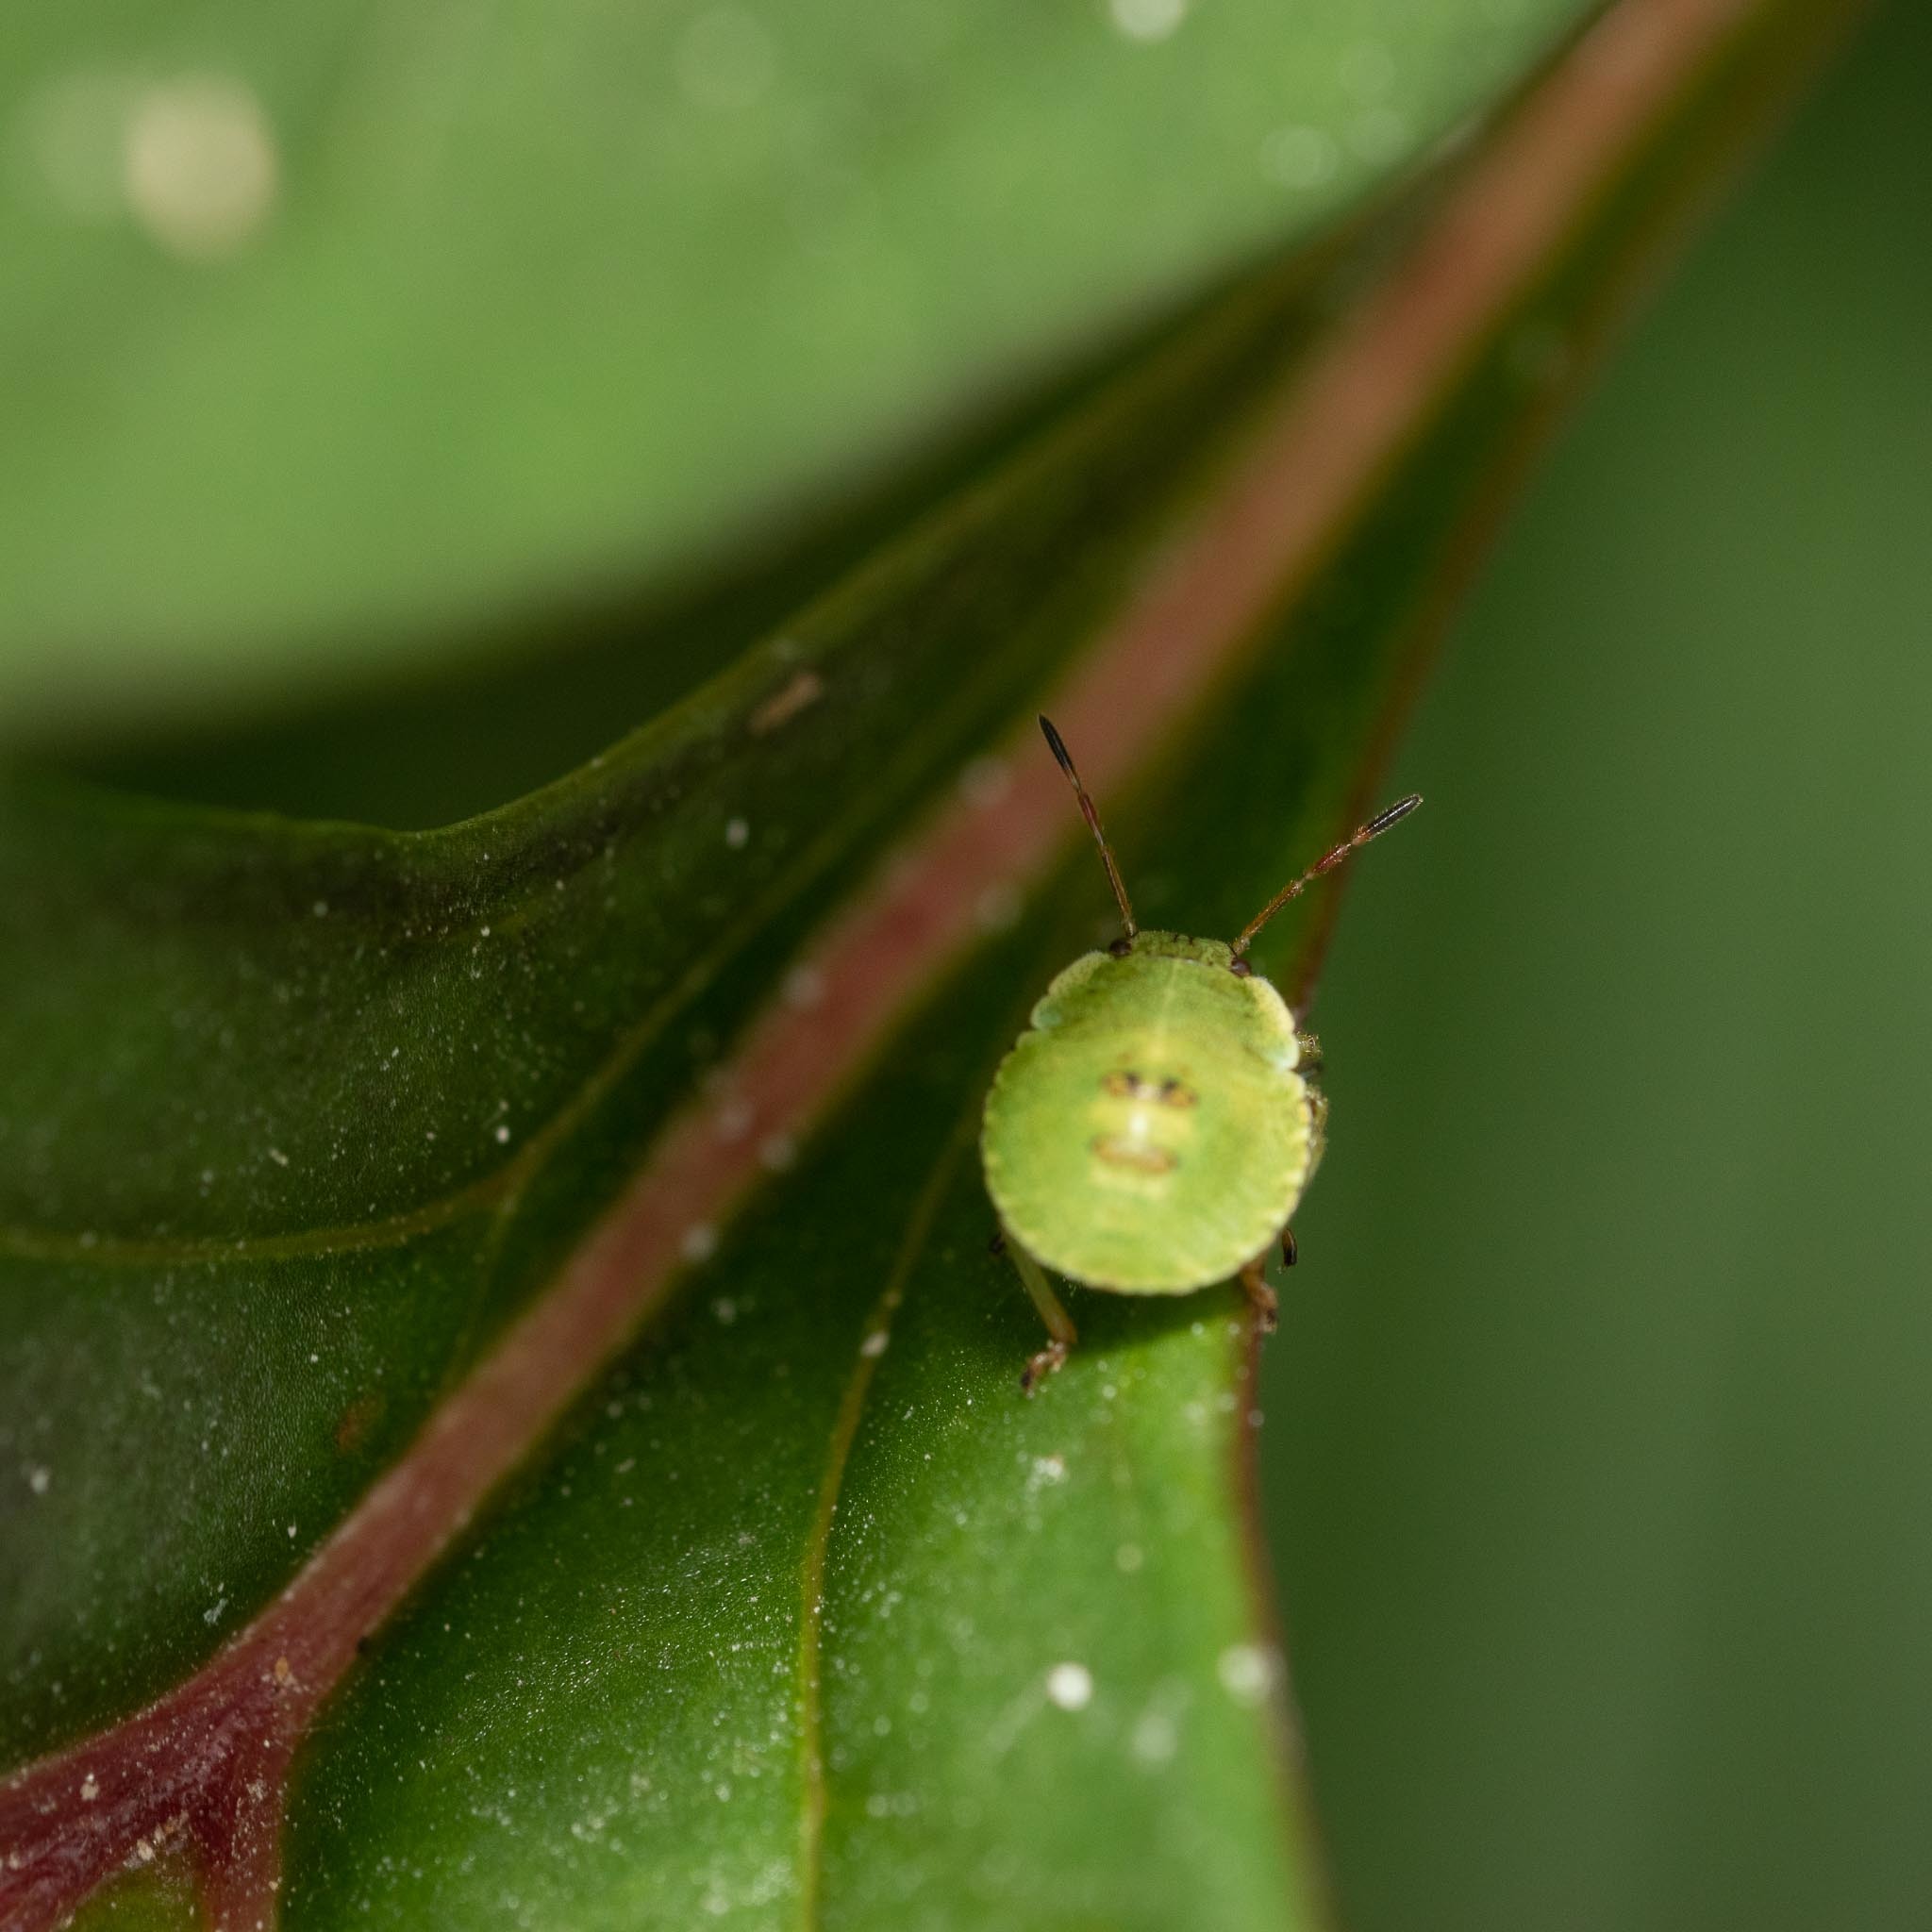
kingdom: Animalia
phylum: Arthropoda
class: Insecta
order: Hemiptera
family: Pentatomidae
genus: Palomena
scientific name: Palomena prasina
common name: Green shieldbug
